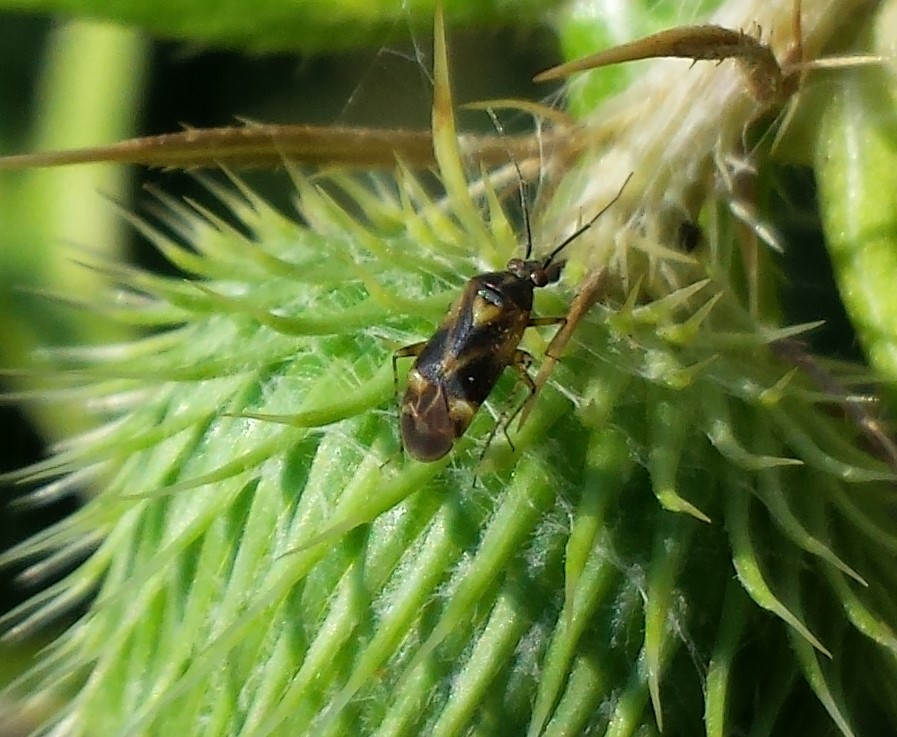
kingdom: Animalia
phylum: Arthropoda
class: Insecta
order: Hemiptera
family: Miridae
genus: Plagiognathus
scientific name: Plagiognathus obscurus
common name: Obscure plant bug
